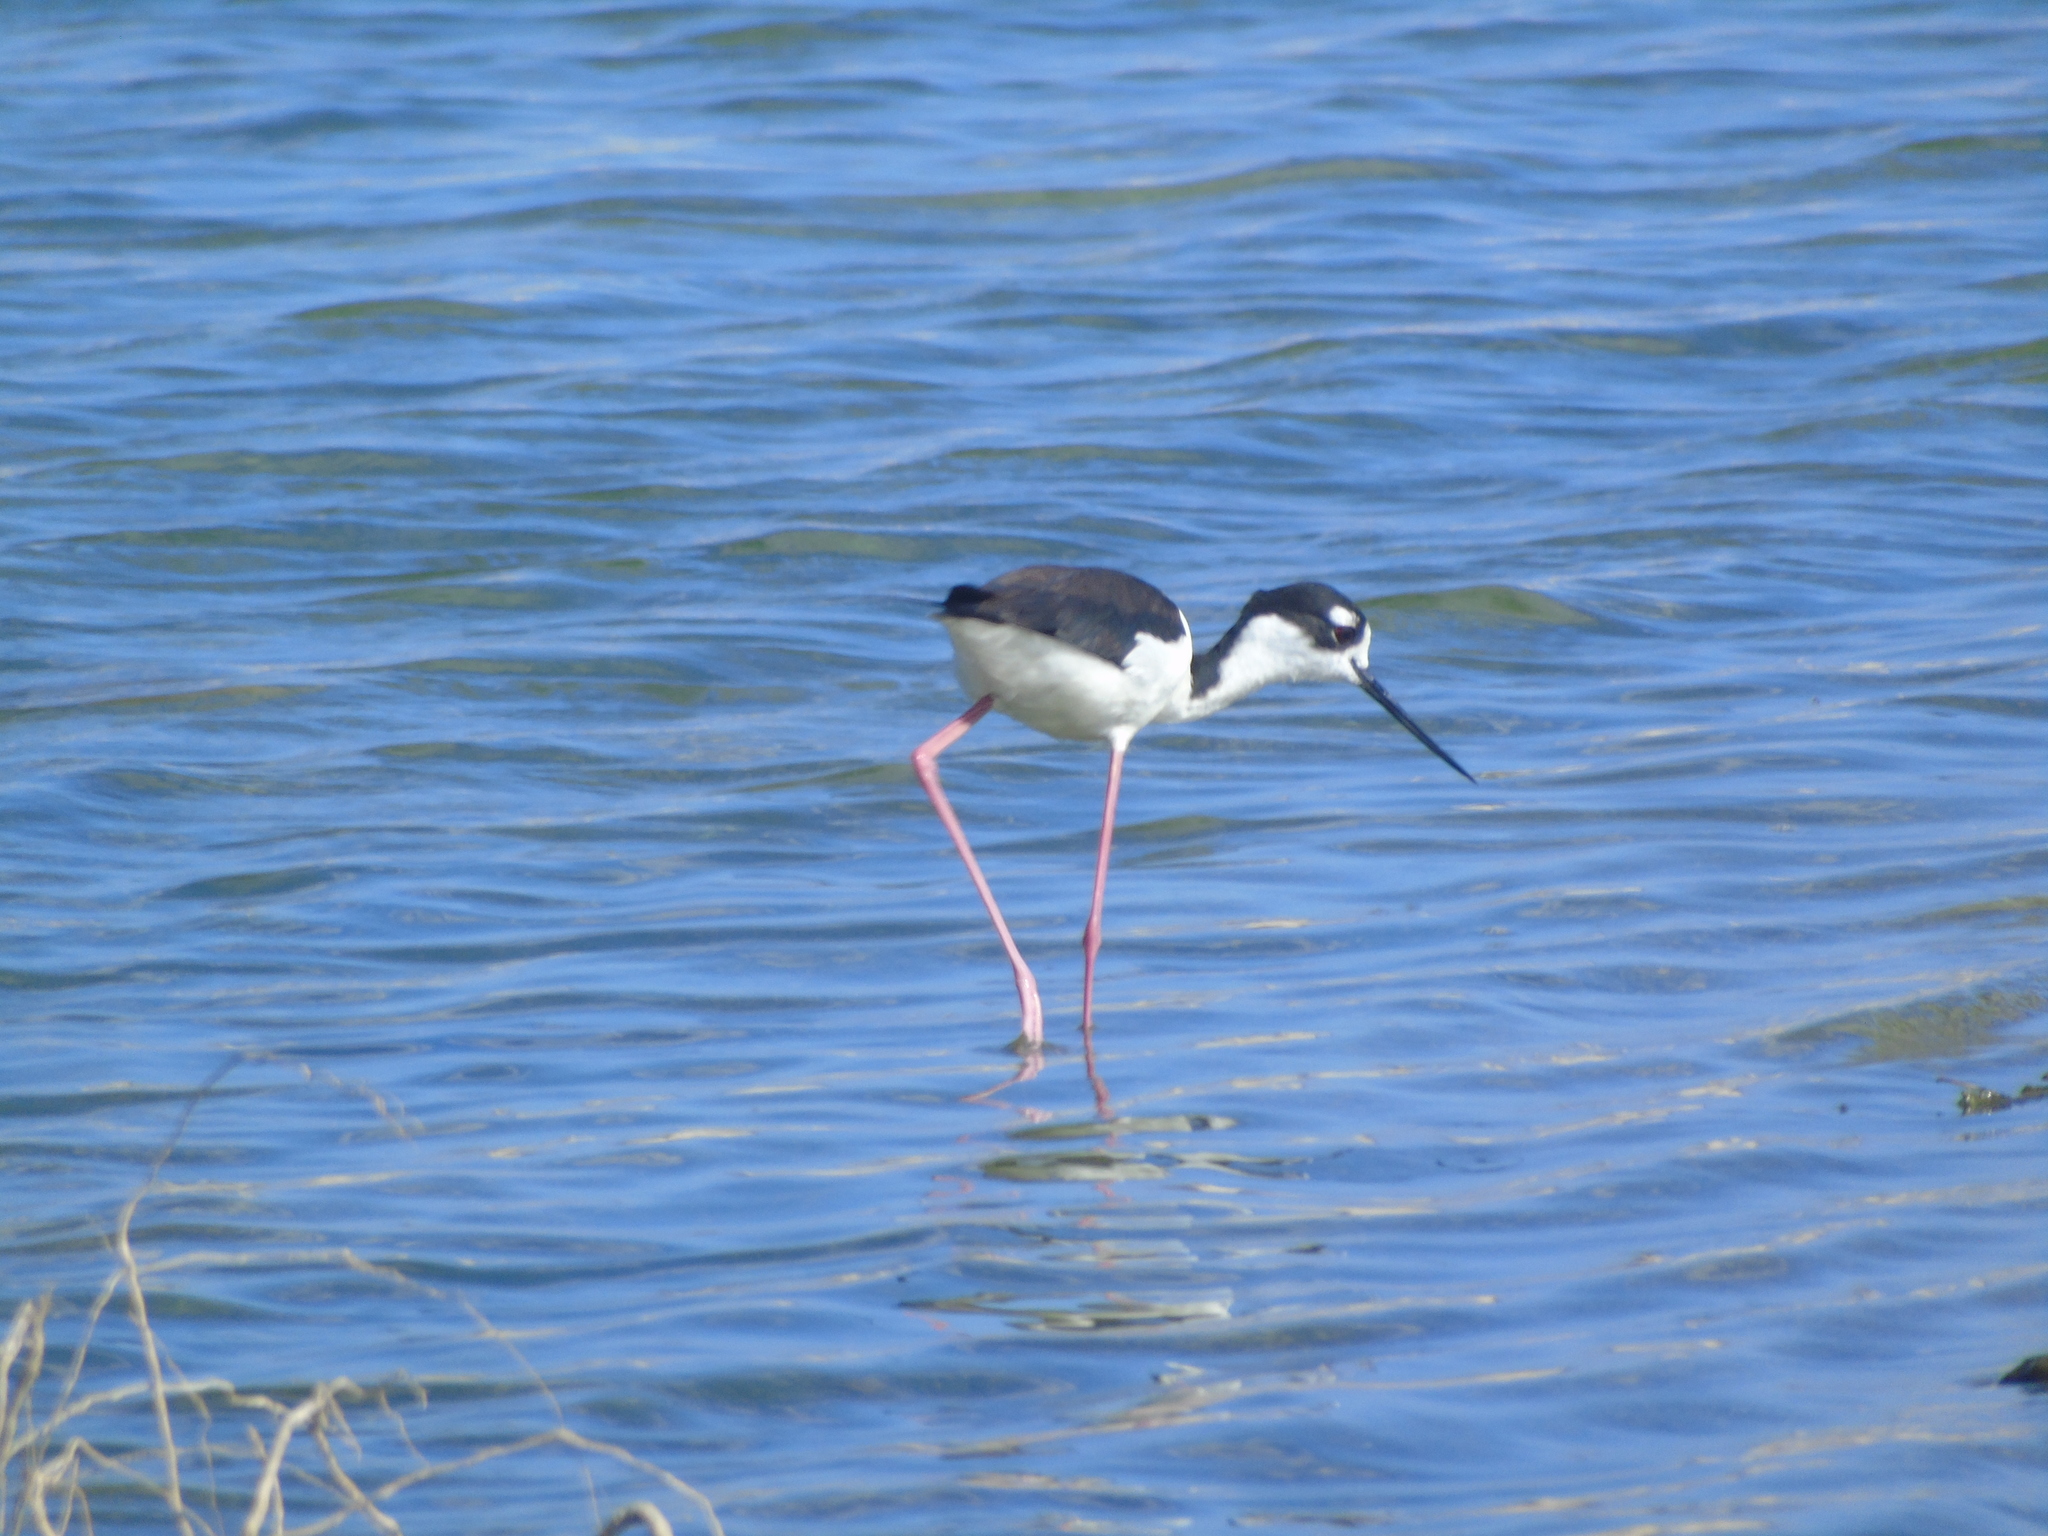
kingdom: Animalia
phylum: Chordata
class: Aves
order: Charadriiformes
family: Recurvirostridae
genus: Himantopus
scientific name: Himantopus mexicanus
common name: Black-necked stilt
